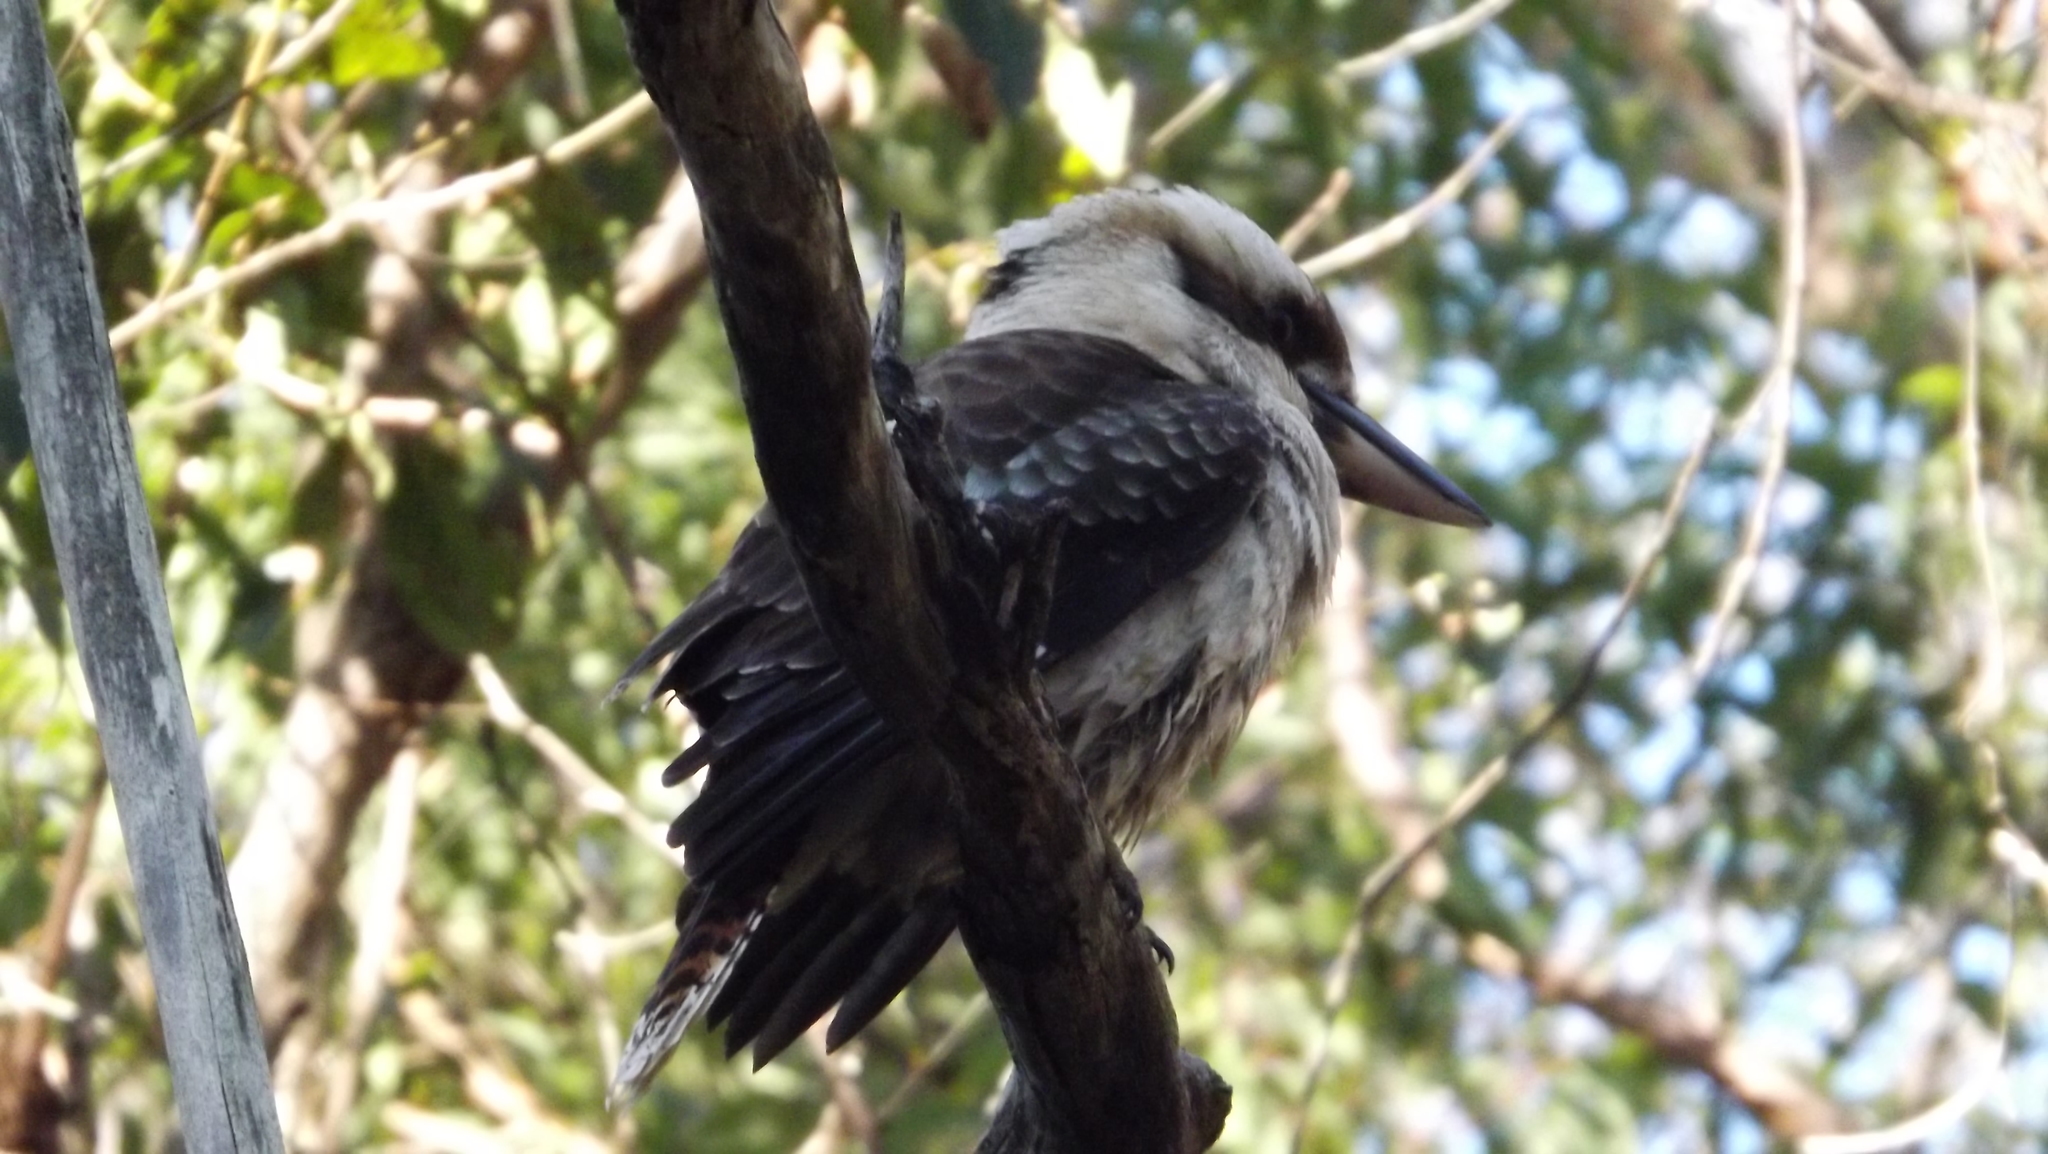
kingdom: Animalia
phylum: Chordata
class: Aves
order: Coraciiformes
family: Alcedinidae
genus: Dacelo
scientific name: Dacelo novaeguineae
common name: Laughing kookaburra
